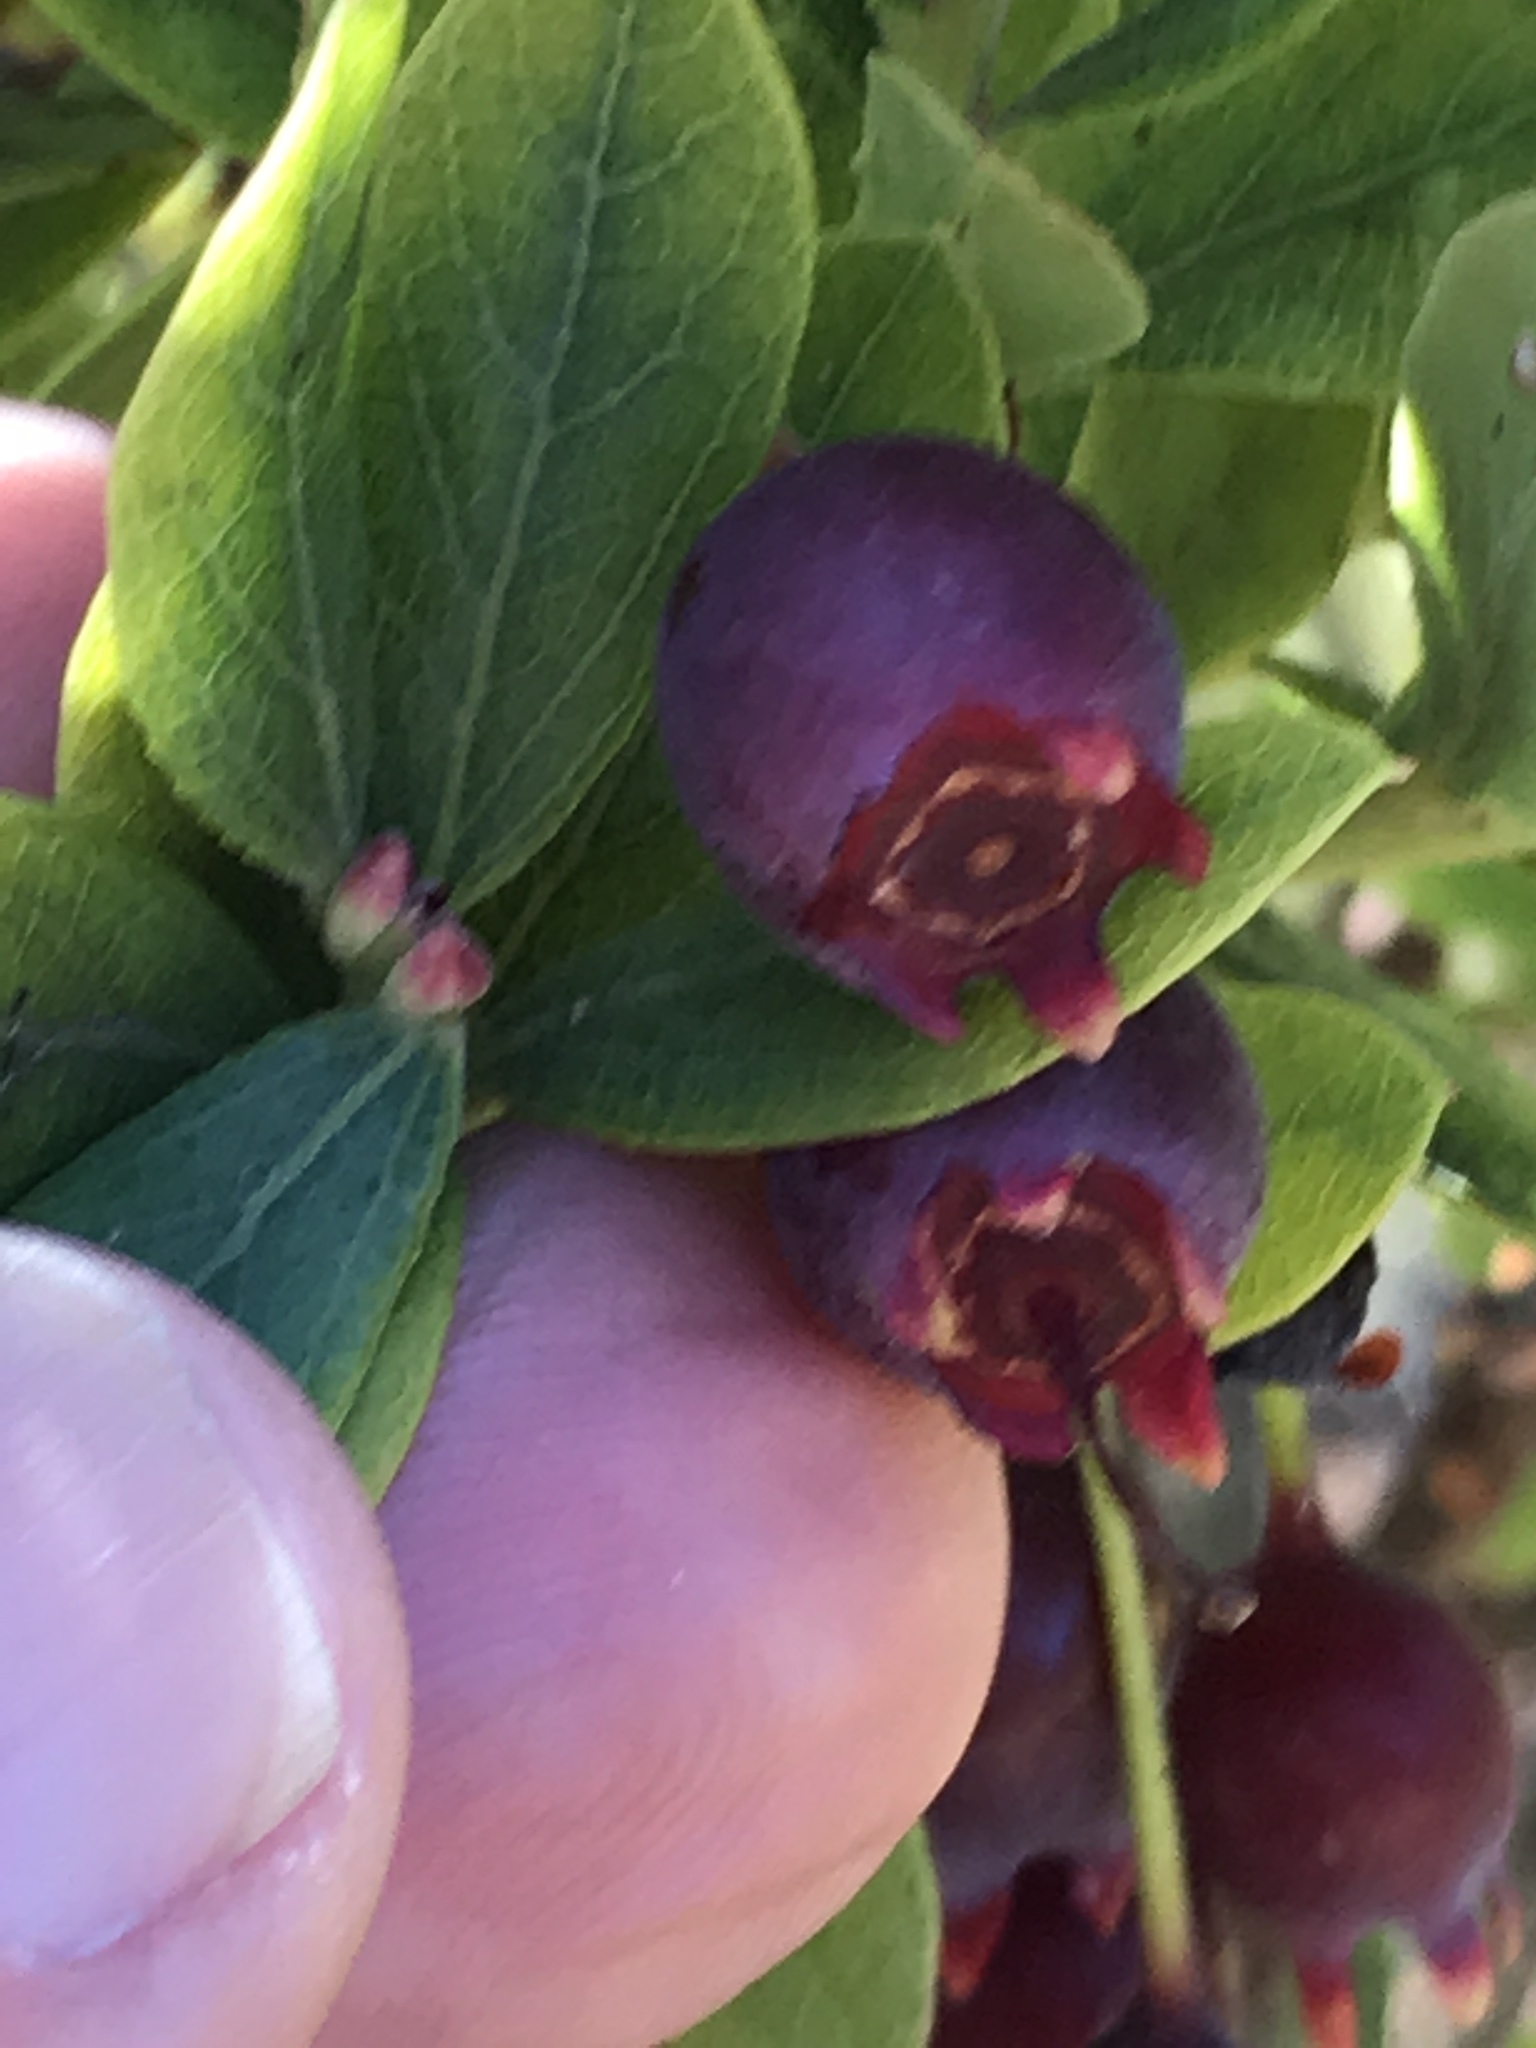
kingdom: Plantae
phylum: Tracheophyta
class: Magnoliopsida
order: Ericales
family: Ericaceae
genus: Vaccinium
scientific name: Vaccinium reticulatum
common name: Ohelo
